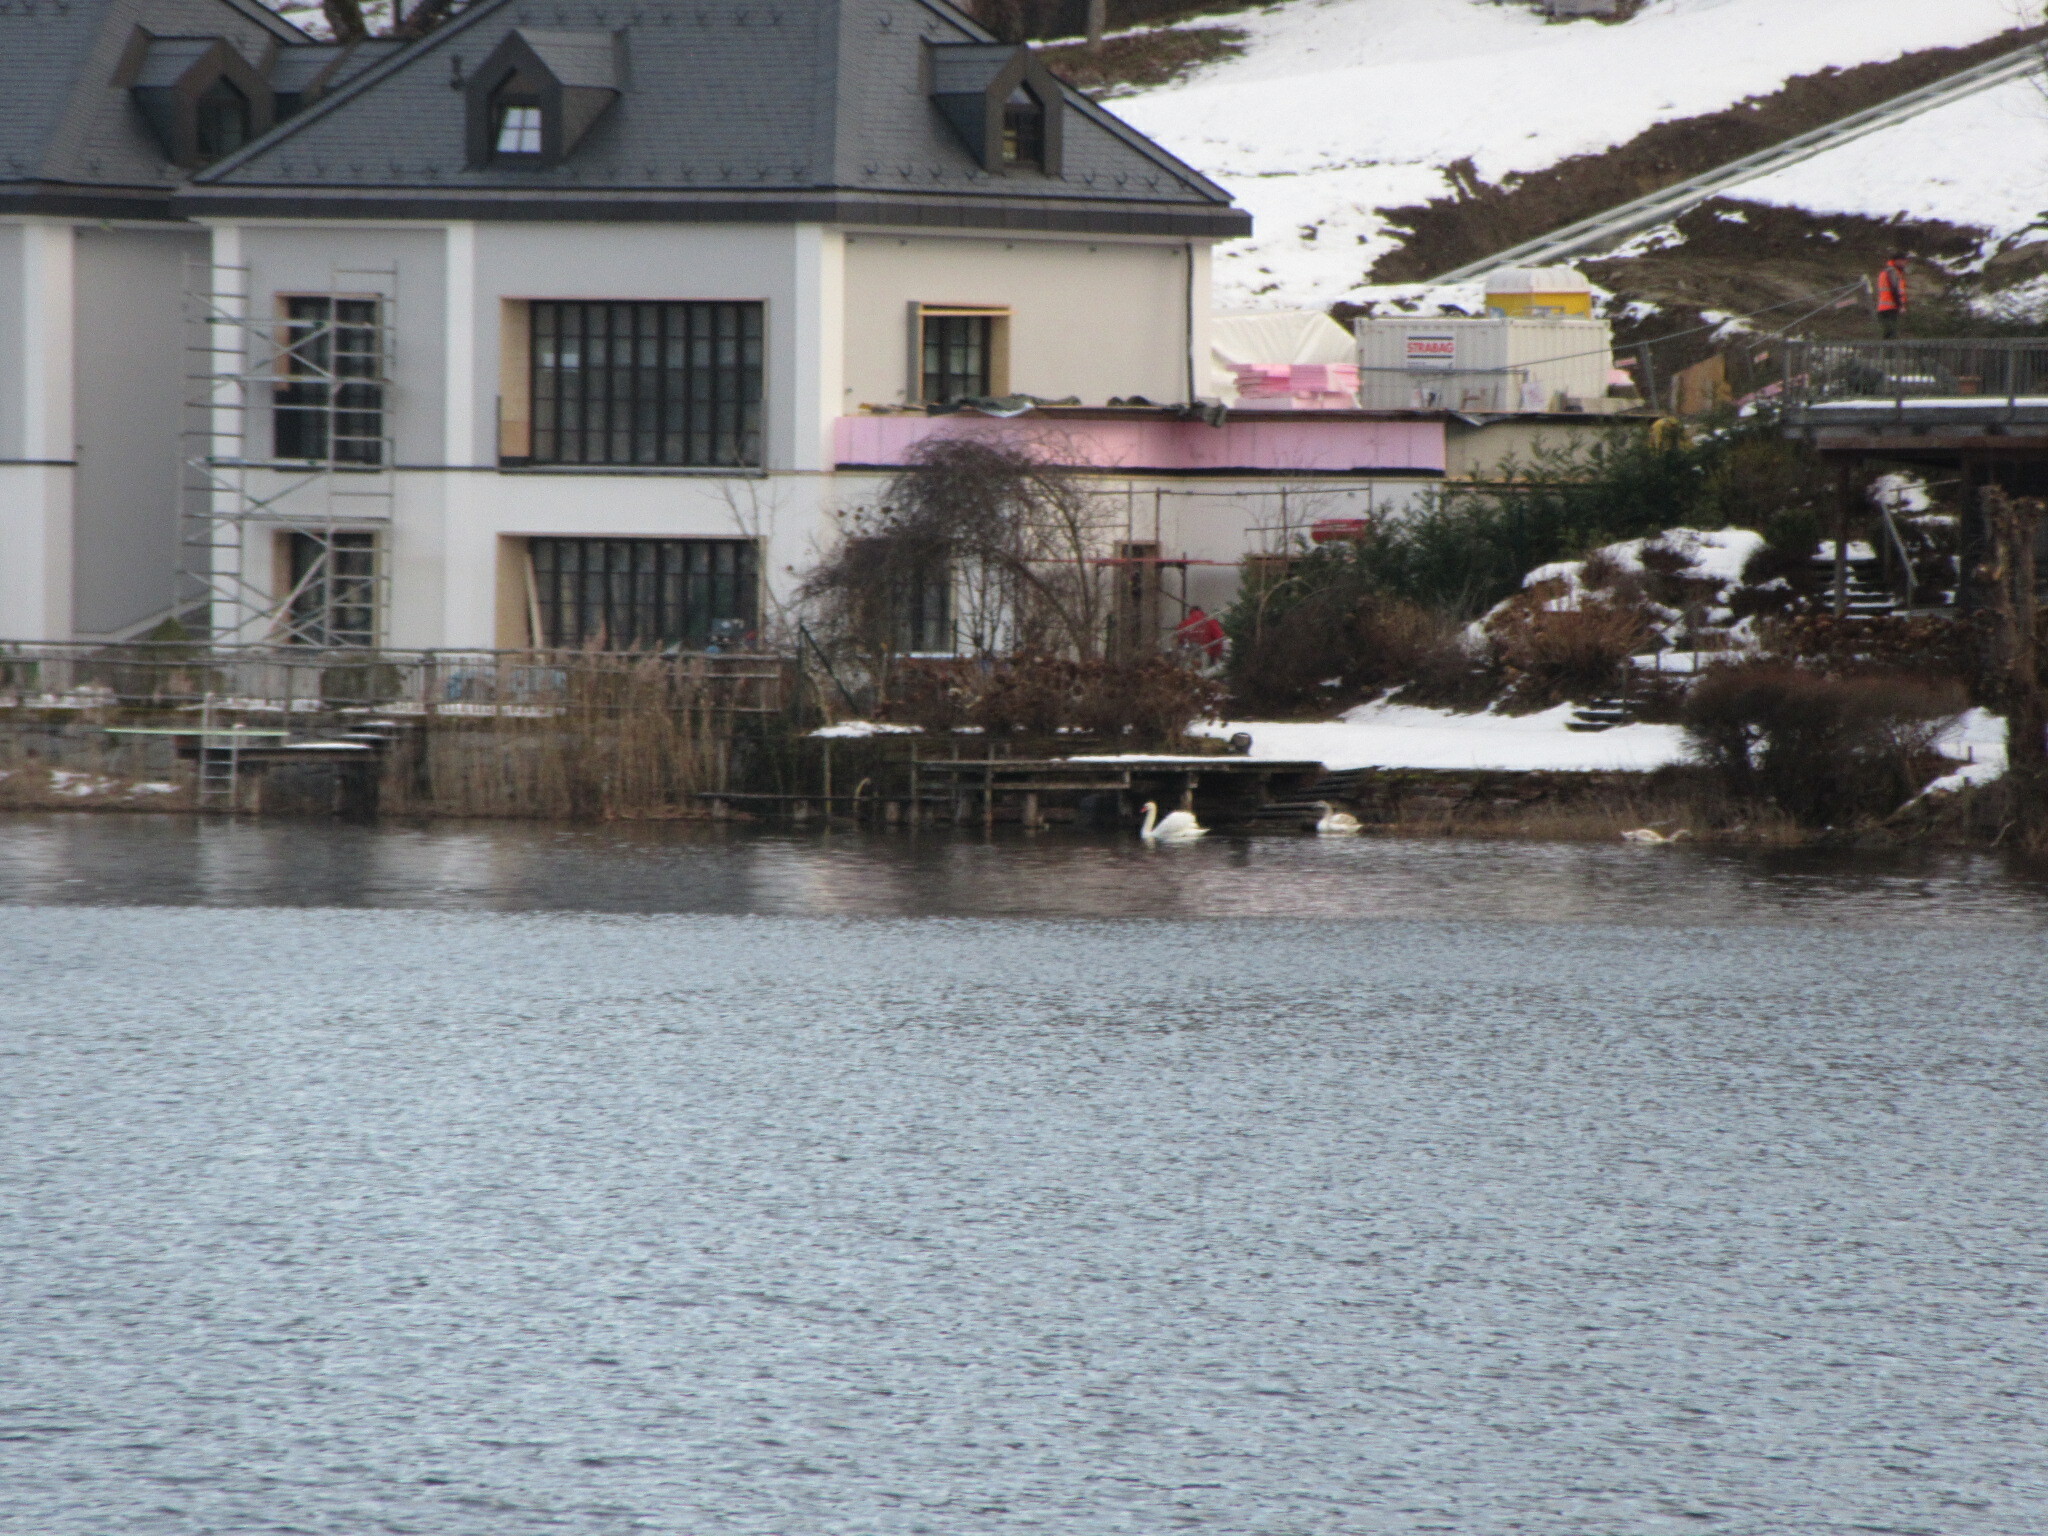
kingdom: Animalia
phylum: Chordata
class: Aves
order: Anseriformes
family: Anatidae
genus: Cygnus
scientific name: Cygnus olor
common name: Mute swan
